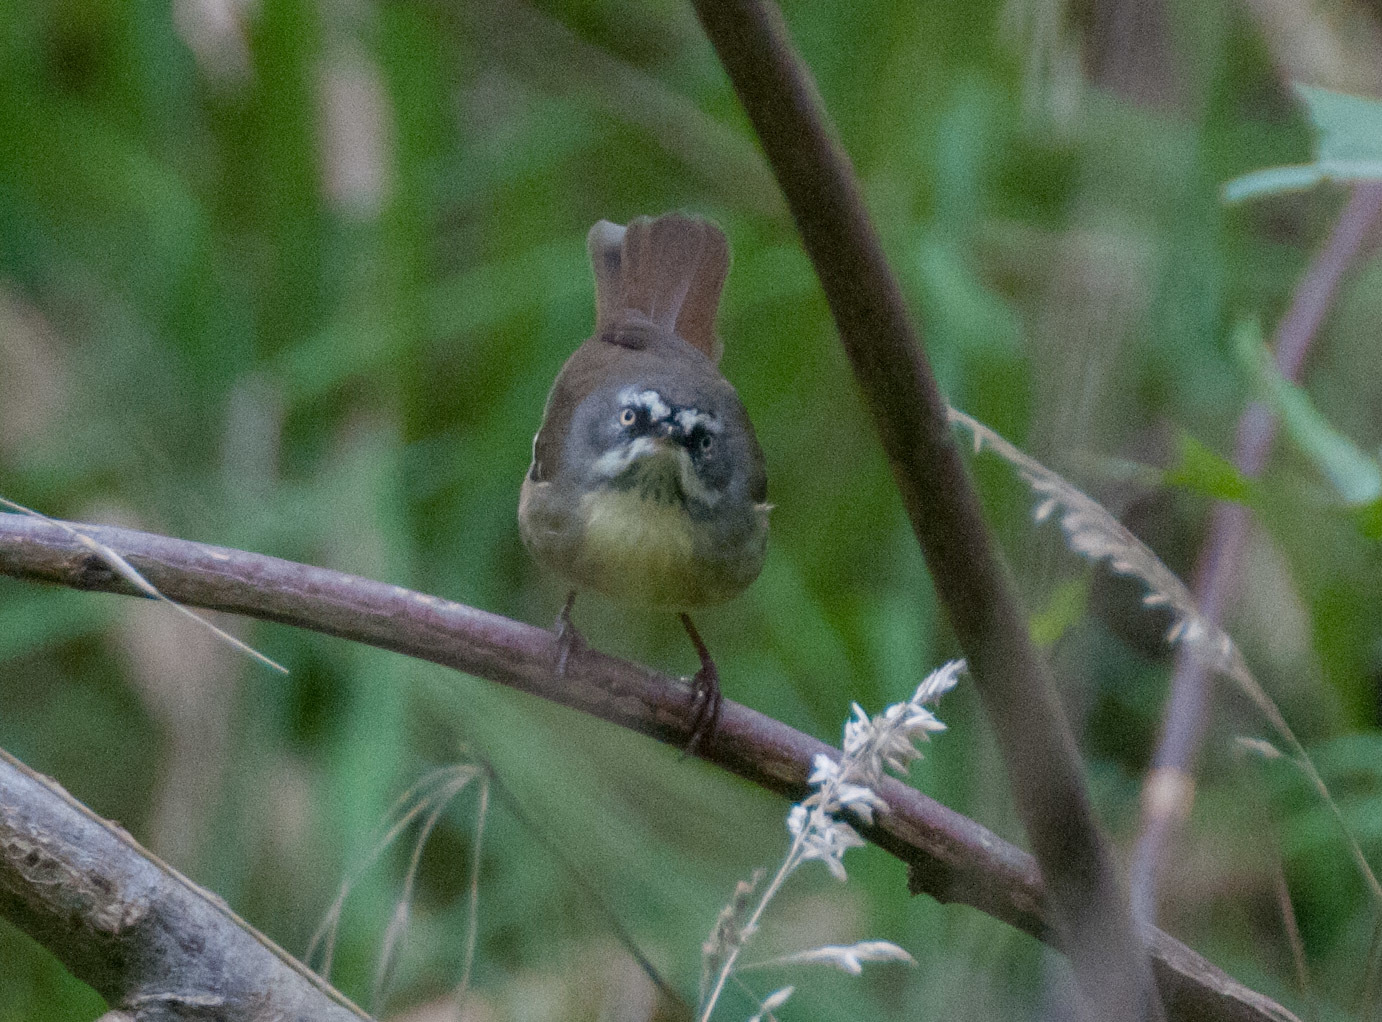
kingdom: Animalia
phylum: Chordata
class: Aves
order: Passeriformes
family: Acanthizidae
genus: Sericornis
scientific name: Sericornis frontalis
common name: White-browed scrubwren
